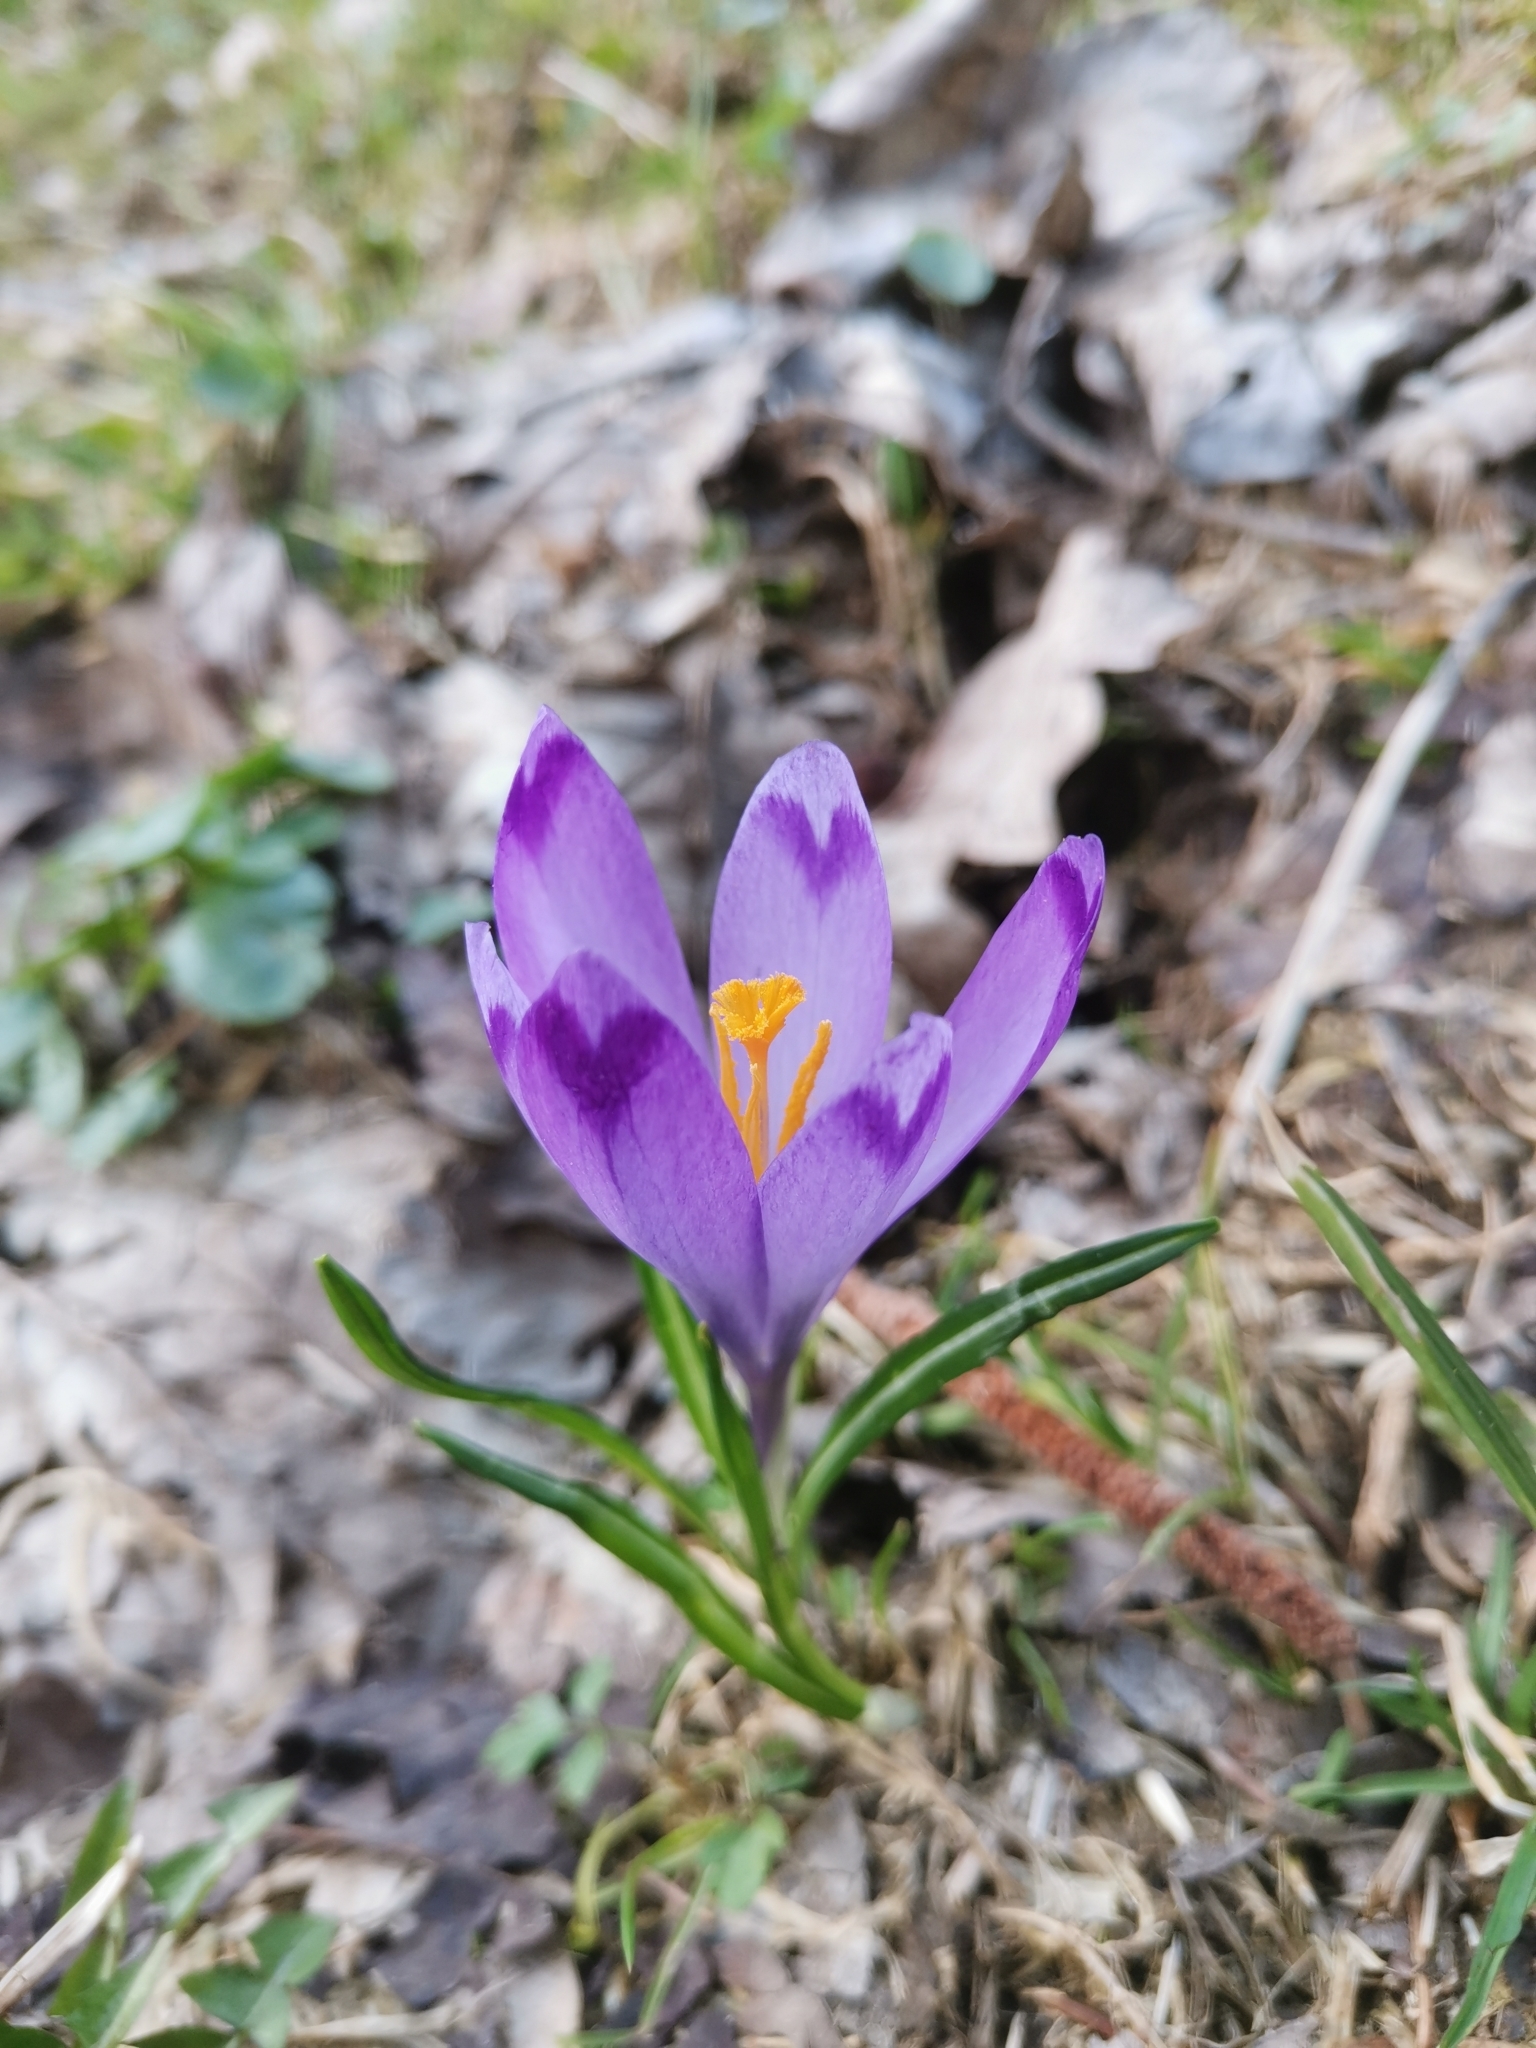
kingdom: Plantae
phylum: Tracheophyta
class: Liliopsida
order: Asparagales
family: Iridaceae
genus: Crocus
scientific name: Crocus heuffelianus
